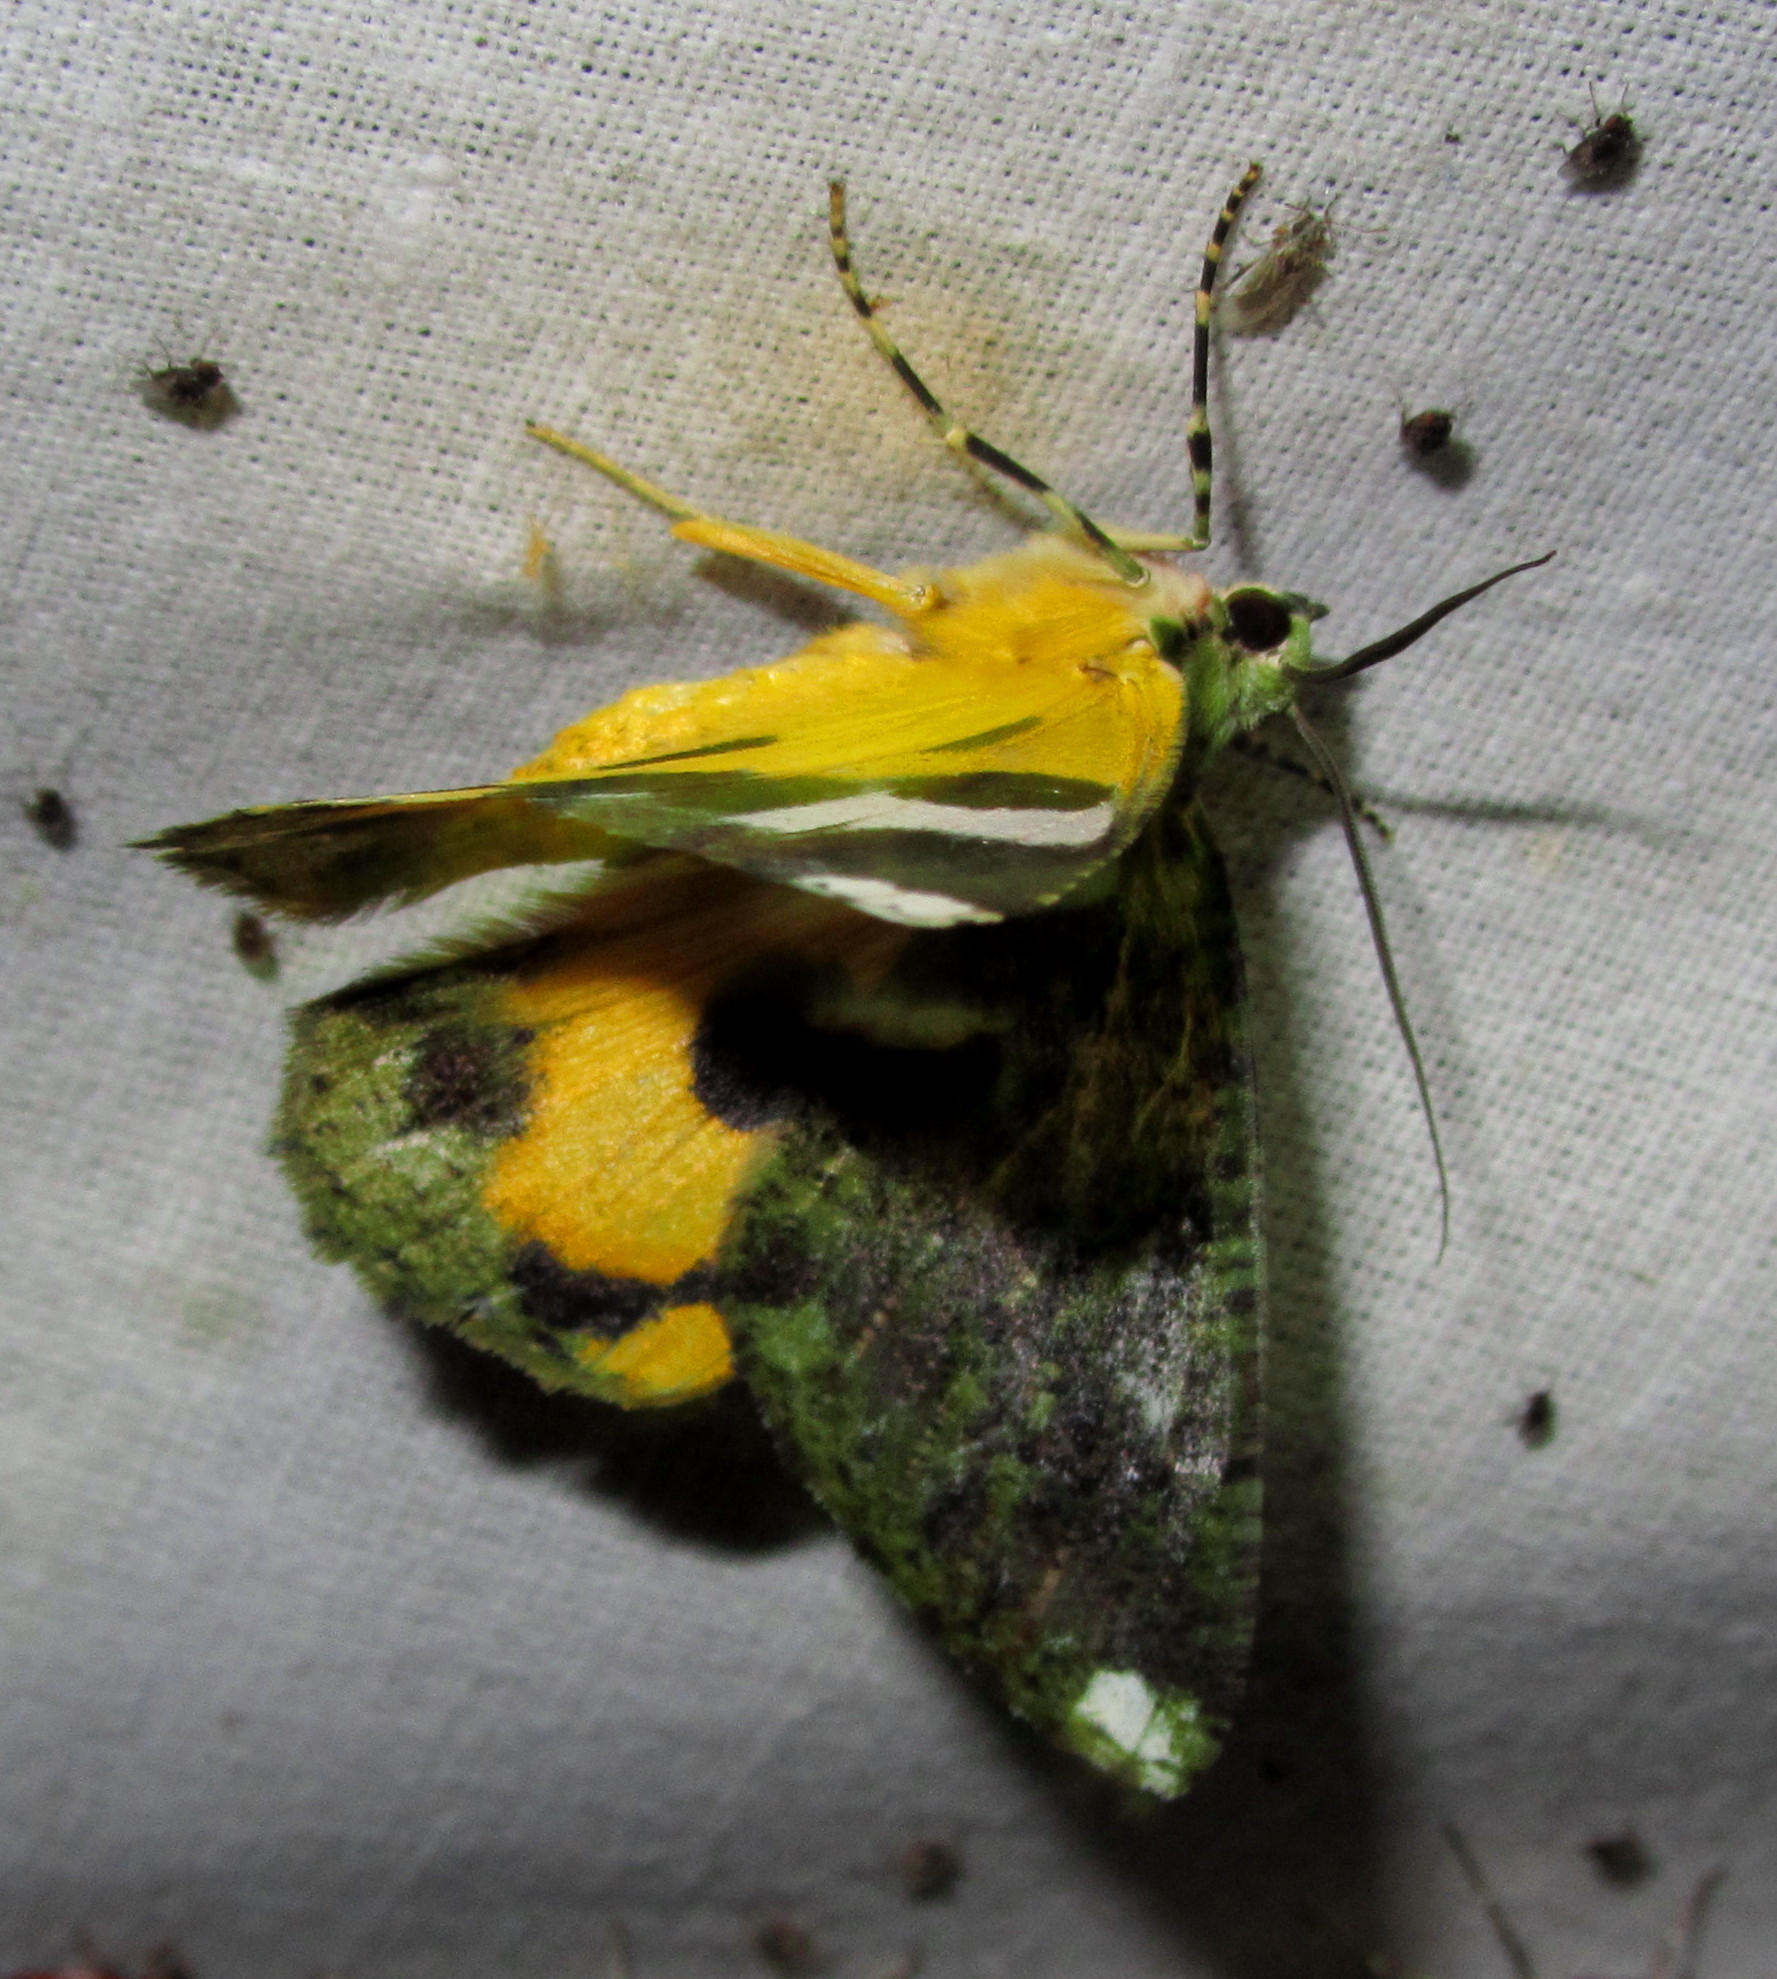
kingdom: Animalia
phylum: Arthropoda
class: Insecta
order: Lepidoptera
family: Geometridae
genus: Dindicodes
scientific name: Dindicodes crocina
